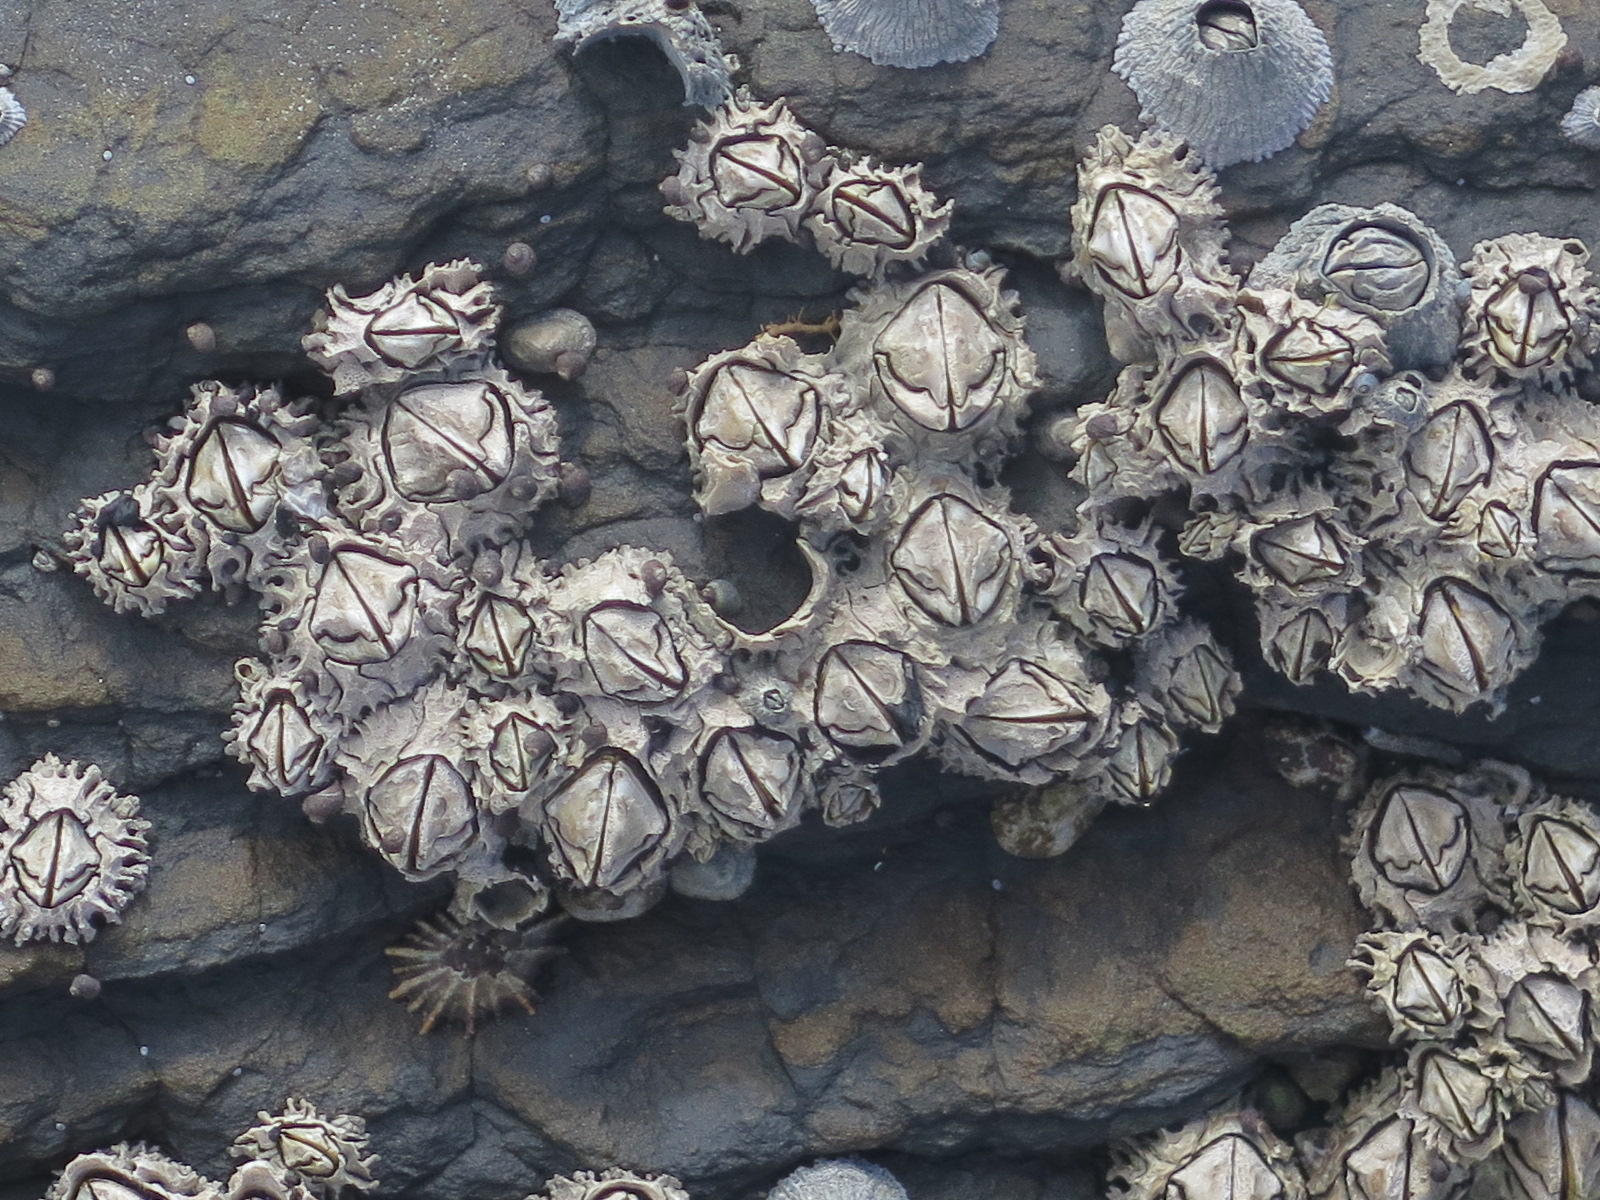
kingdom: Animalia
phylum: Arthropoda
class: Maxillopoda
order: Sessilia
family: Chthamalidae
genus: Octomeris
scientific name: Octomeris angulosa
